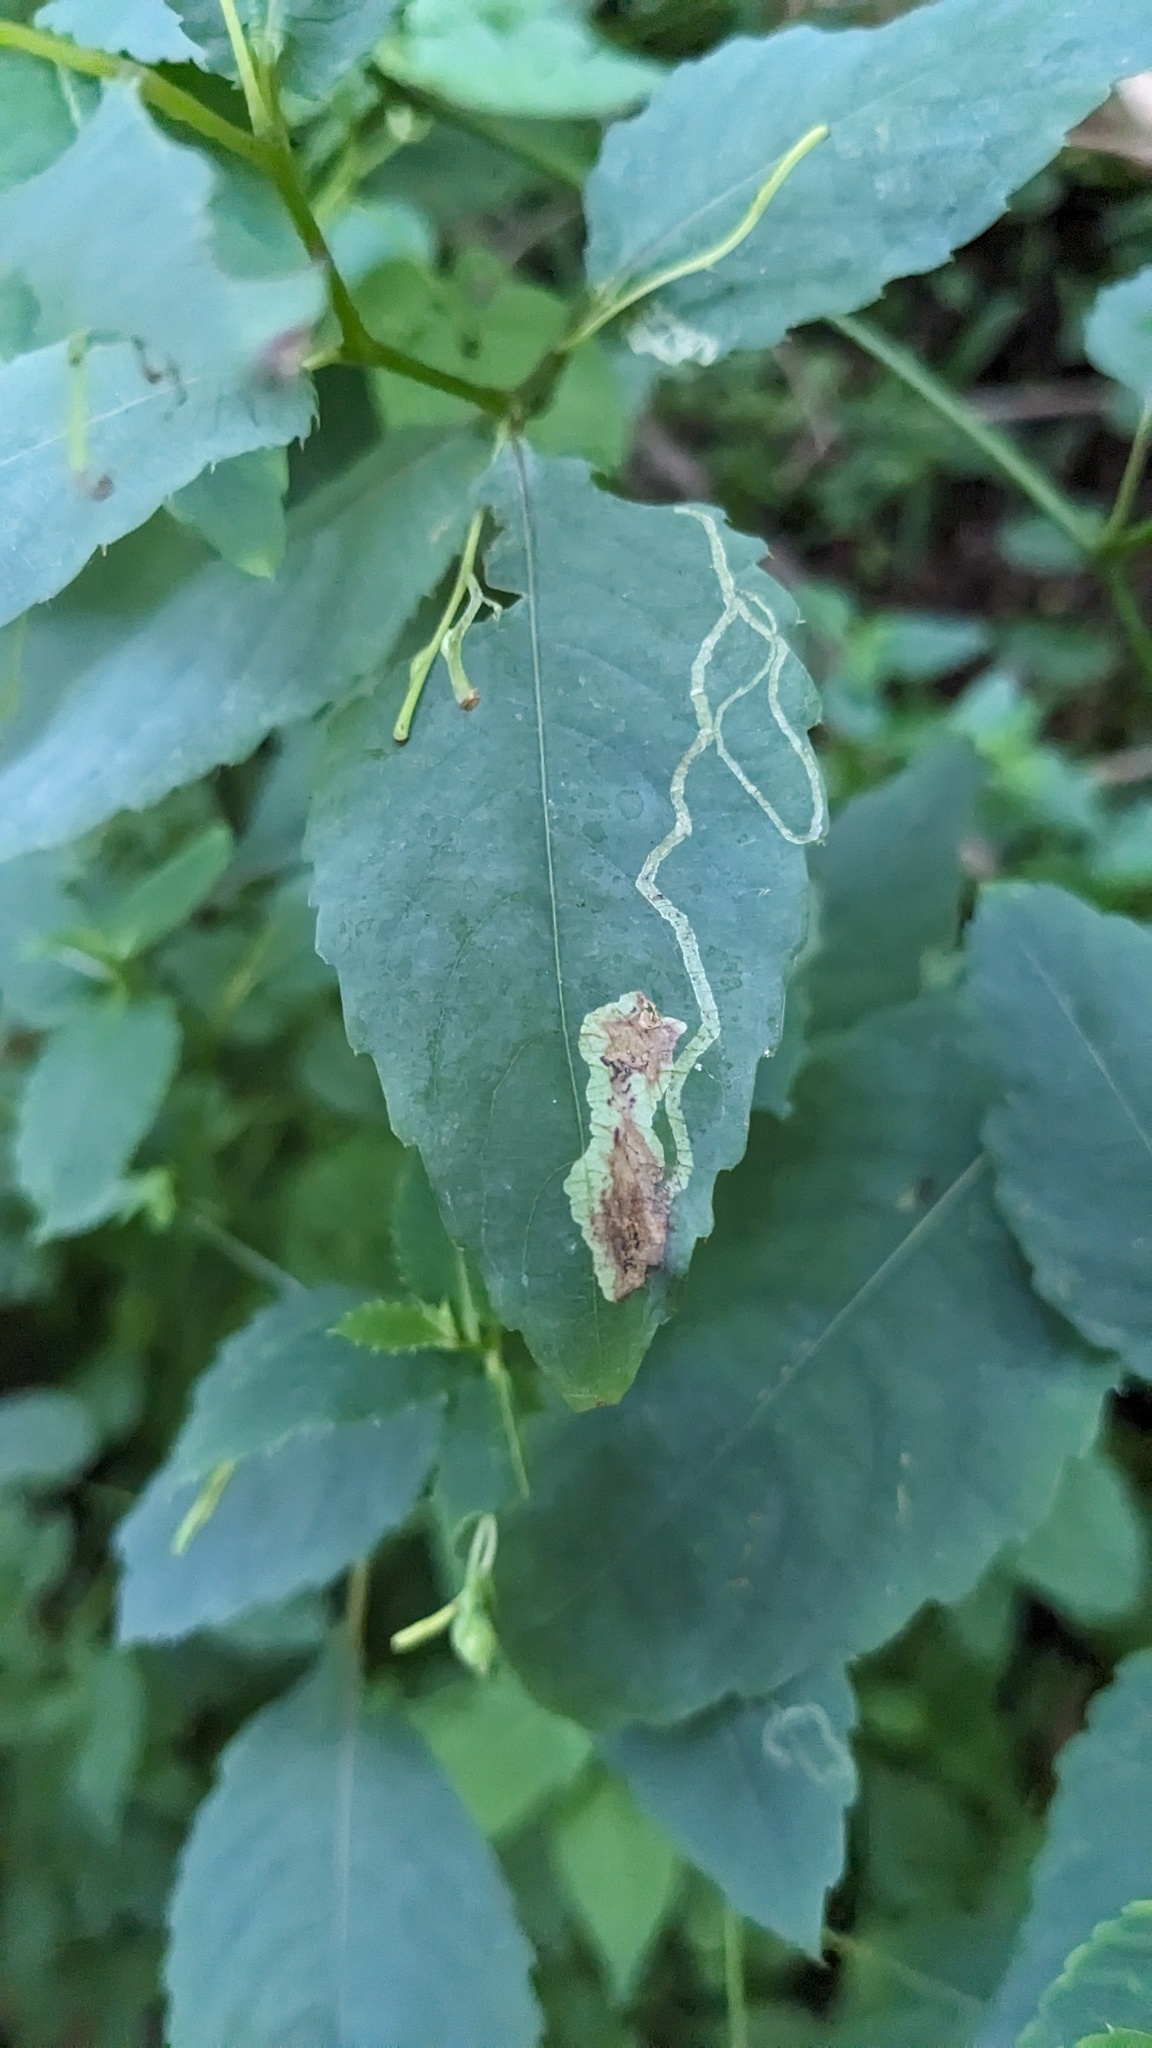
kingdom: Animalia
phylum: Arthropoda
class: Insecta
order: Diptera
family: Agromyzidae
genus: Phytoliriomyza
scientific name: Phytoliriomyza melampyga
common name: Jewelweed leaf-miner fly
